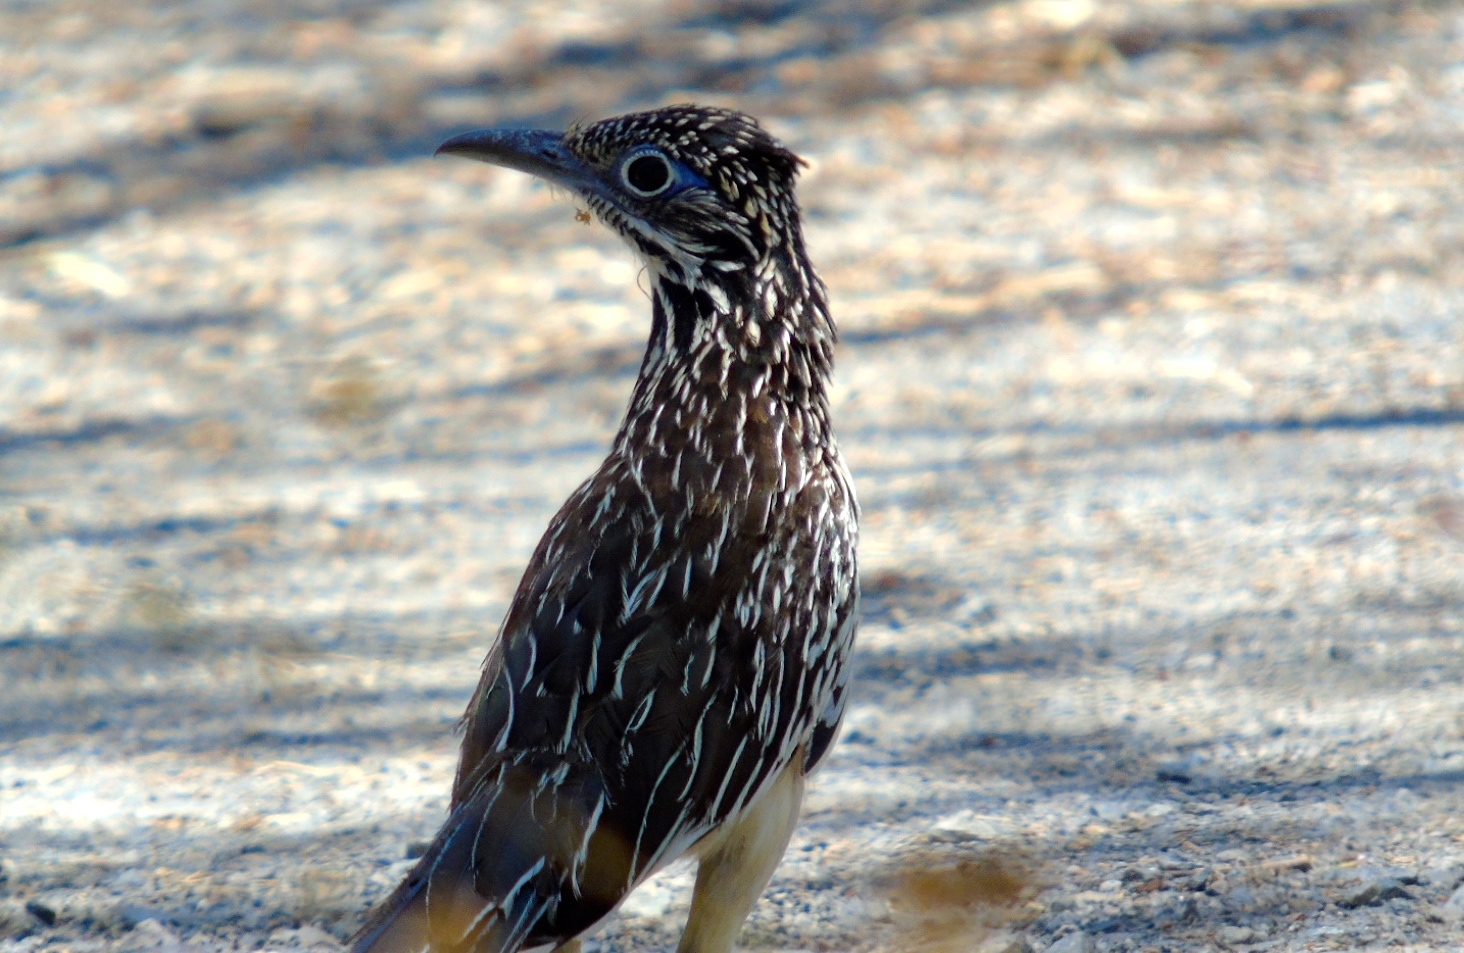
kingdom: Animalia
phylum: Chordata
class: Aves
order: Cuculiformes
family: Cuculidae
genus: Geococcyx
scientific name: Geococcyx velox
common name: Lesser roadrunner
